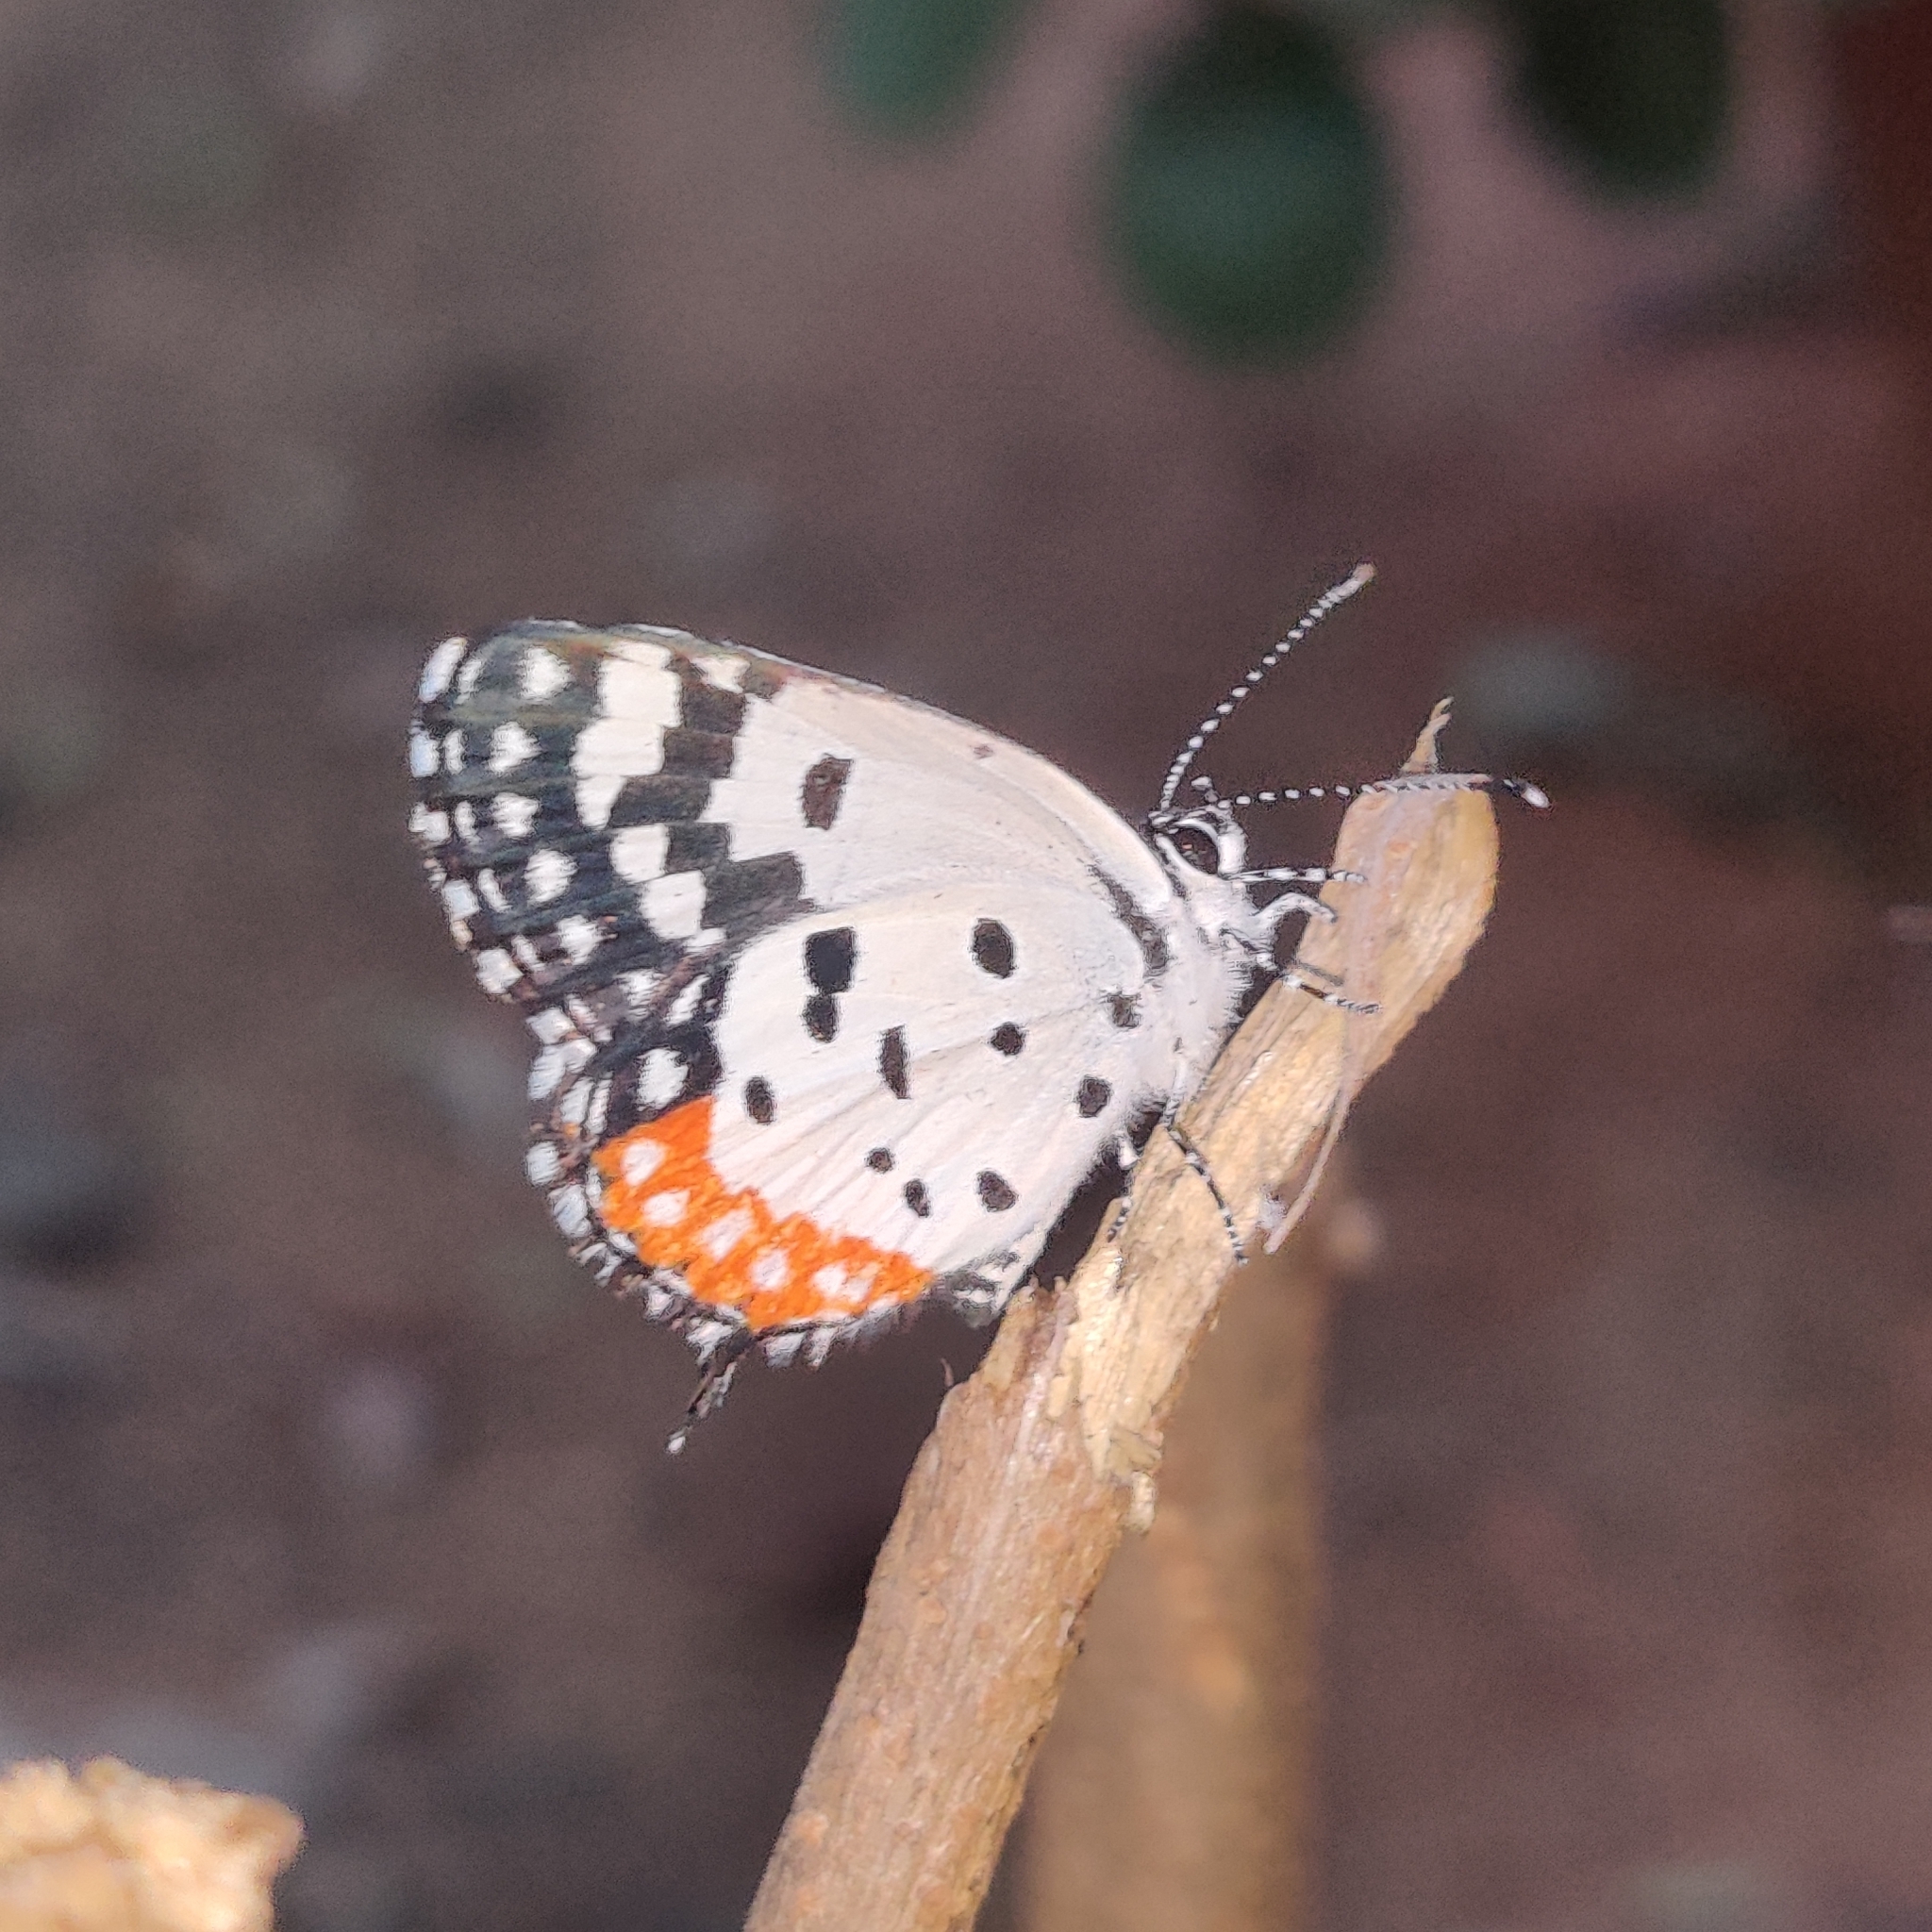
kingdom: Animalia
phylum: Arthropoda
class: Insecta
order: Lepidoptera
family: Lycaenidae
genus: Talicada
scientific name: Talicada nyseus
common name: Red pierrot
